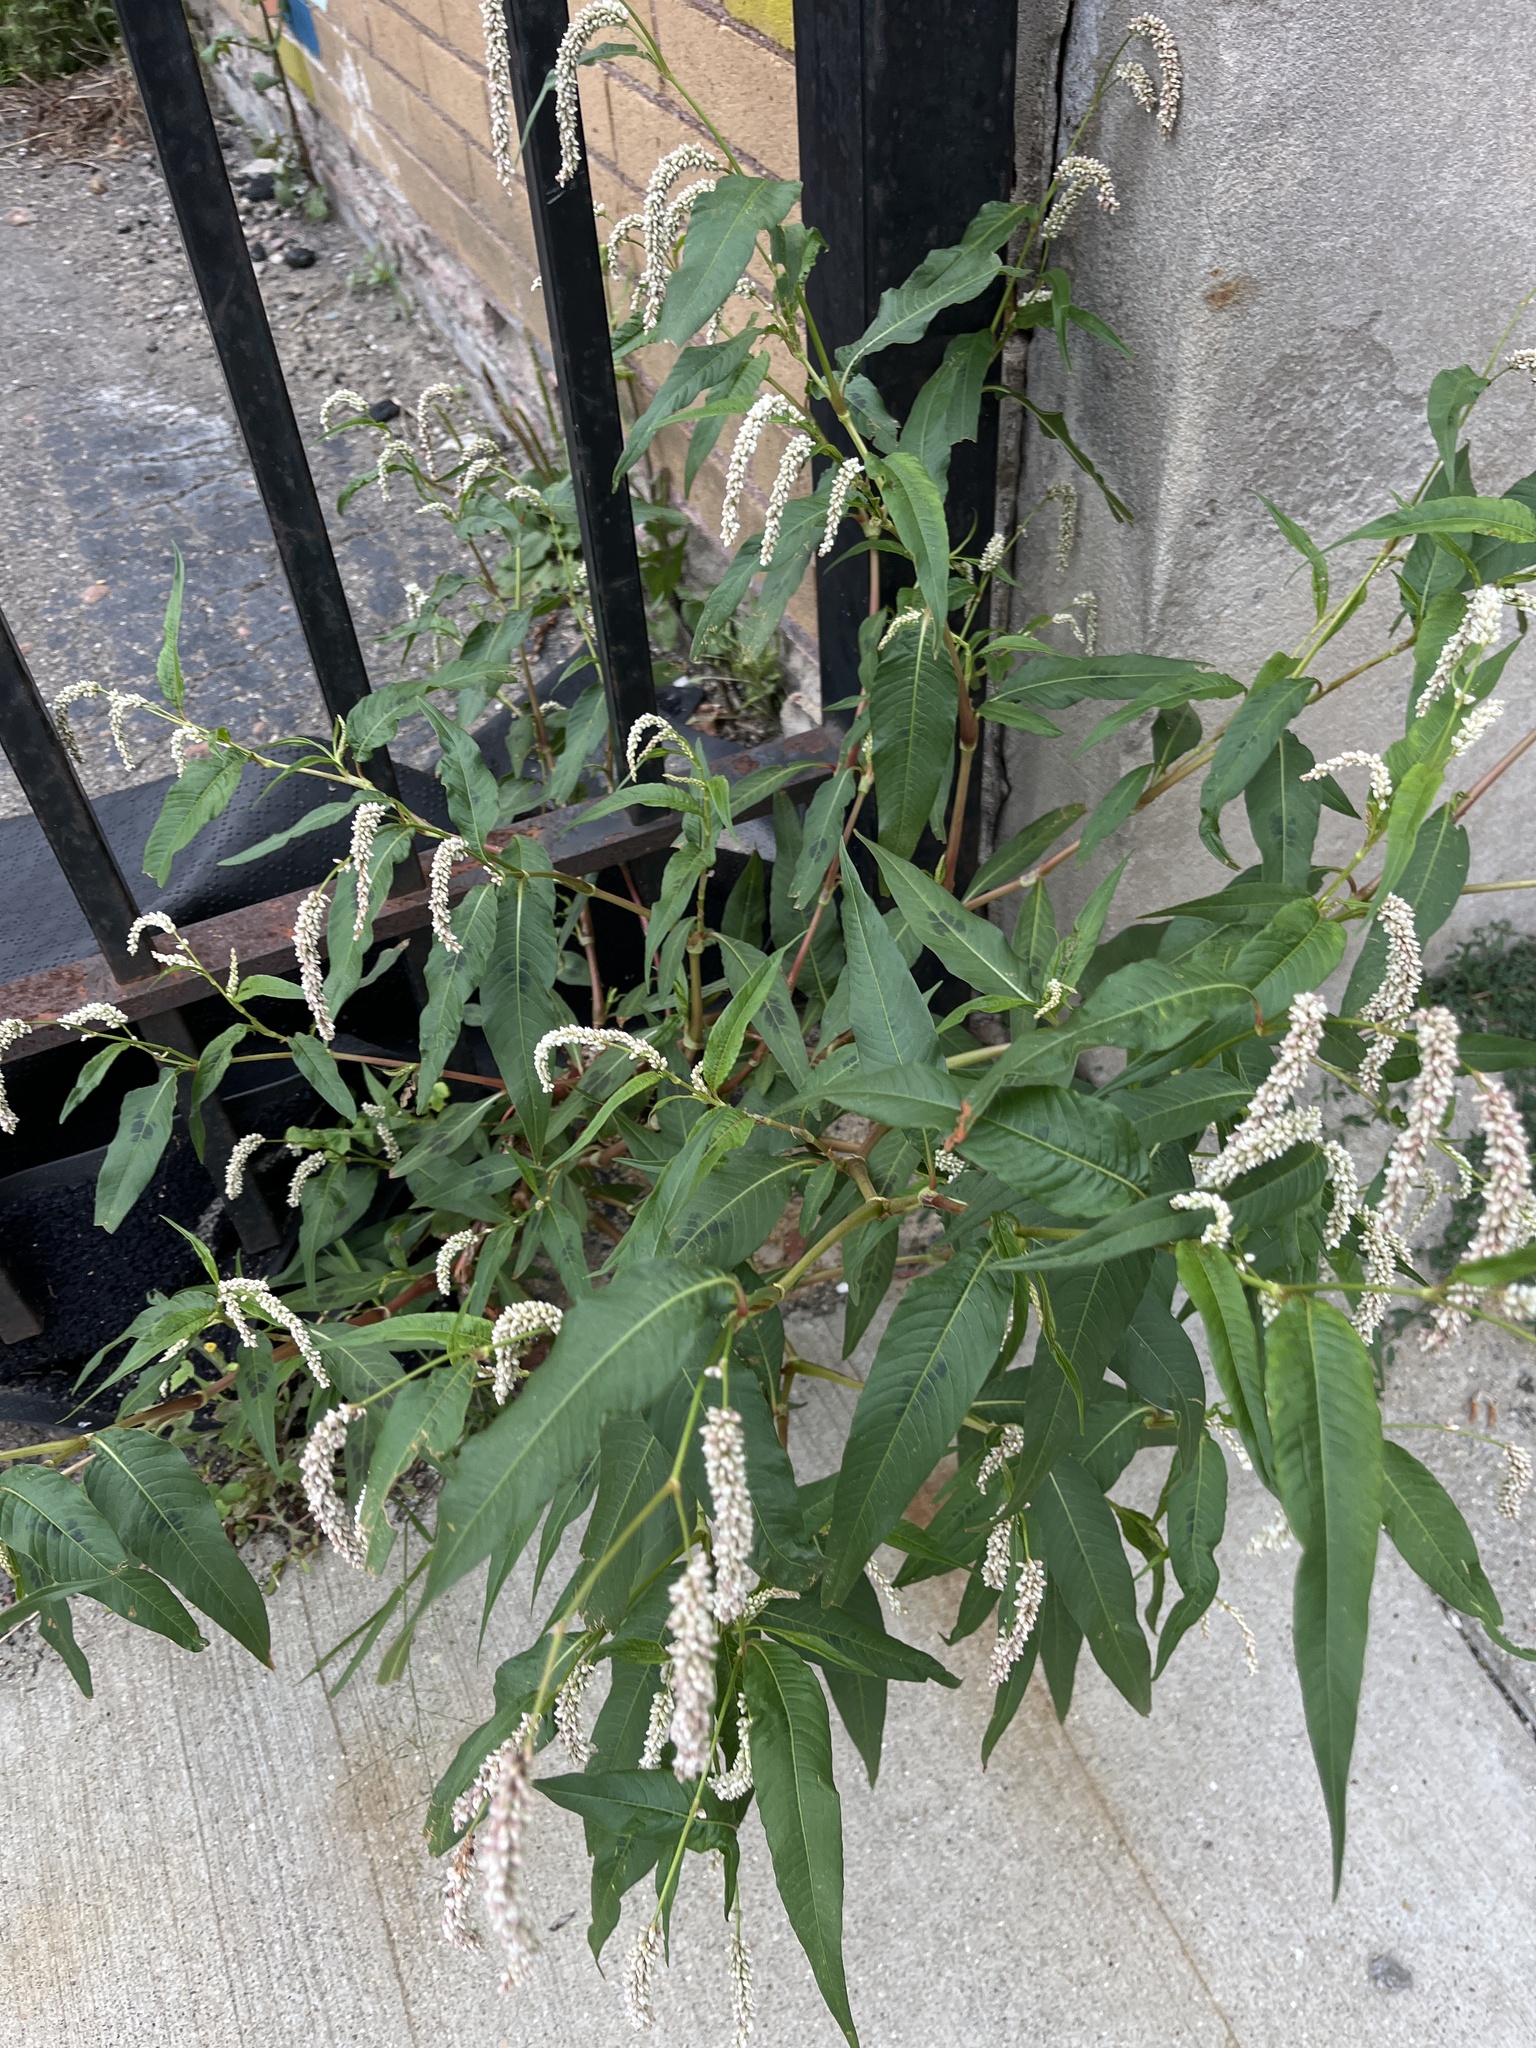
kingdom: Plantae
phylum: Tracheophyta
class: Magnoliopsida
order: Caryophyllales
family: Polygonaceae
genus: Persicaria
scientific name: Persicaria lapathifolia
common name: Curlytop knotweed
